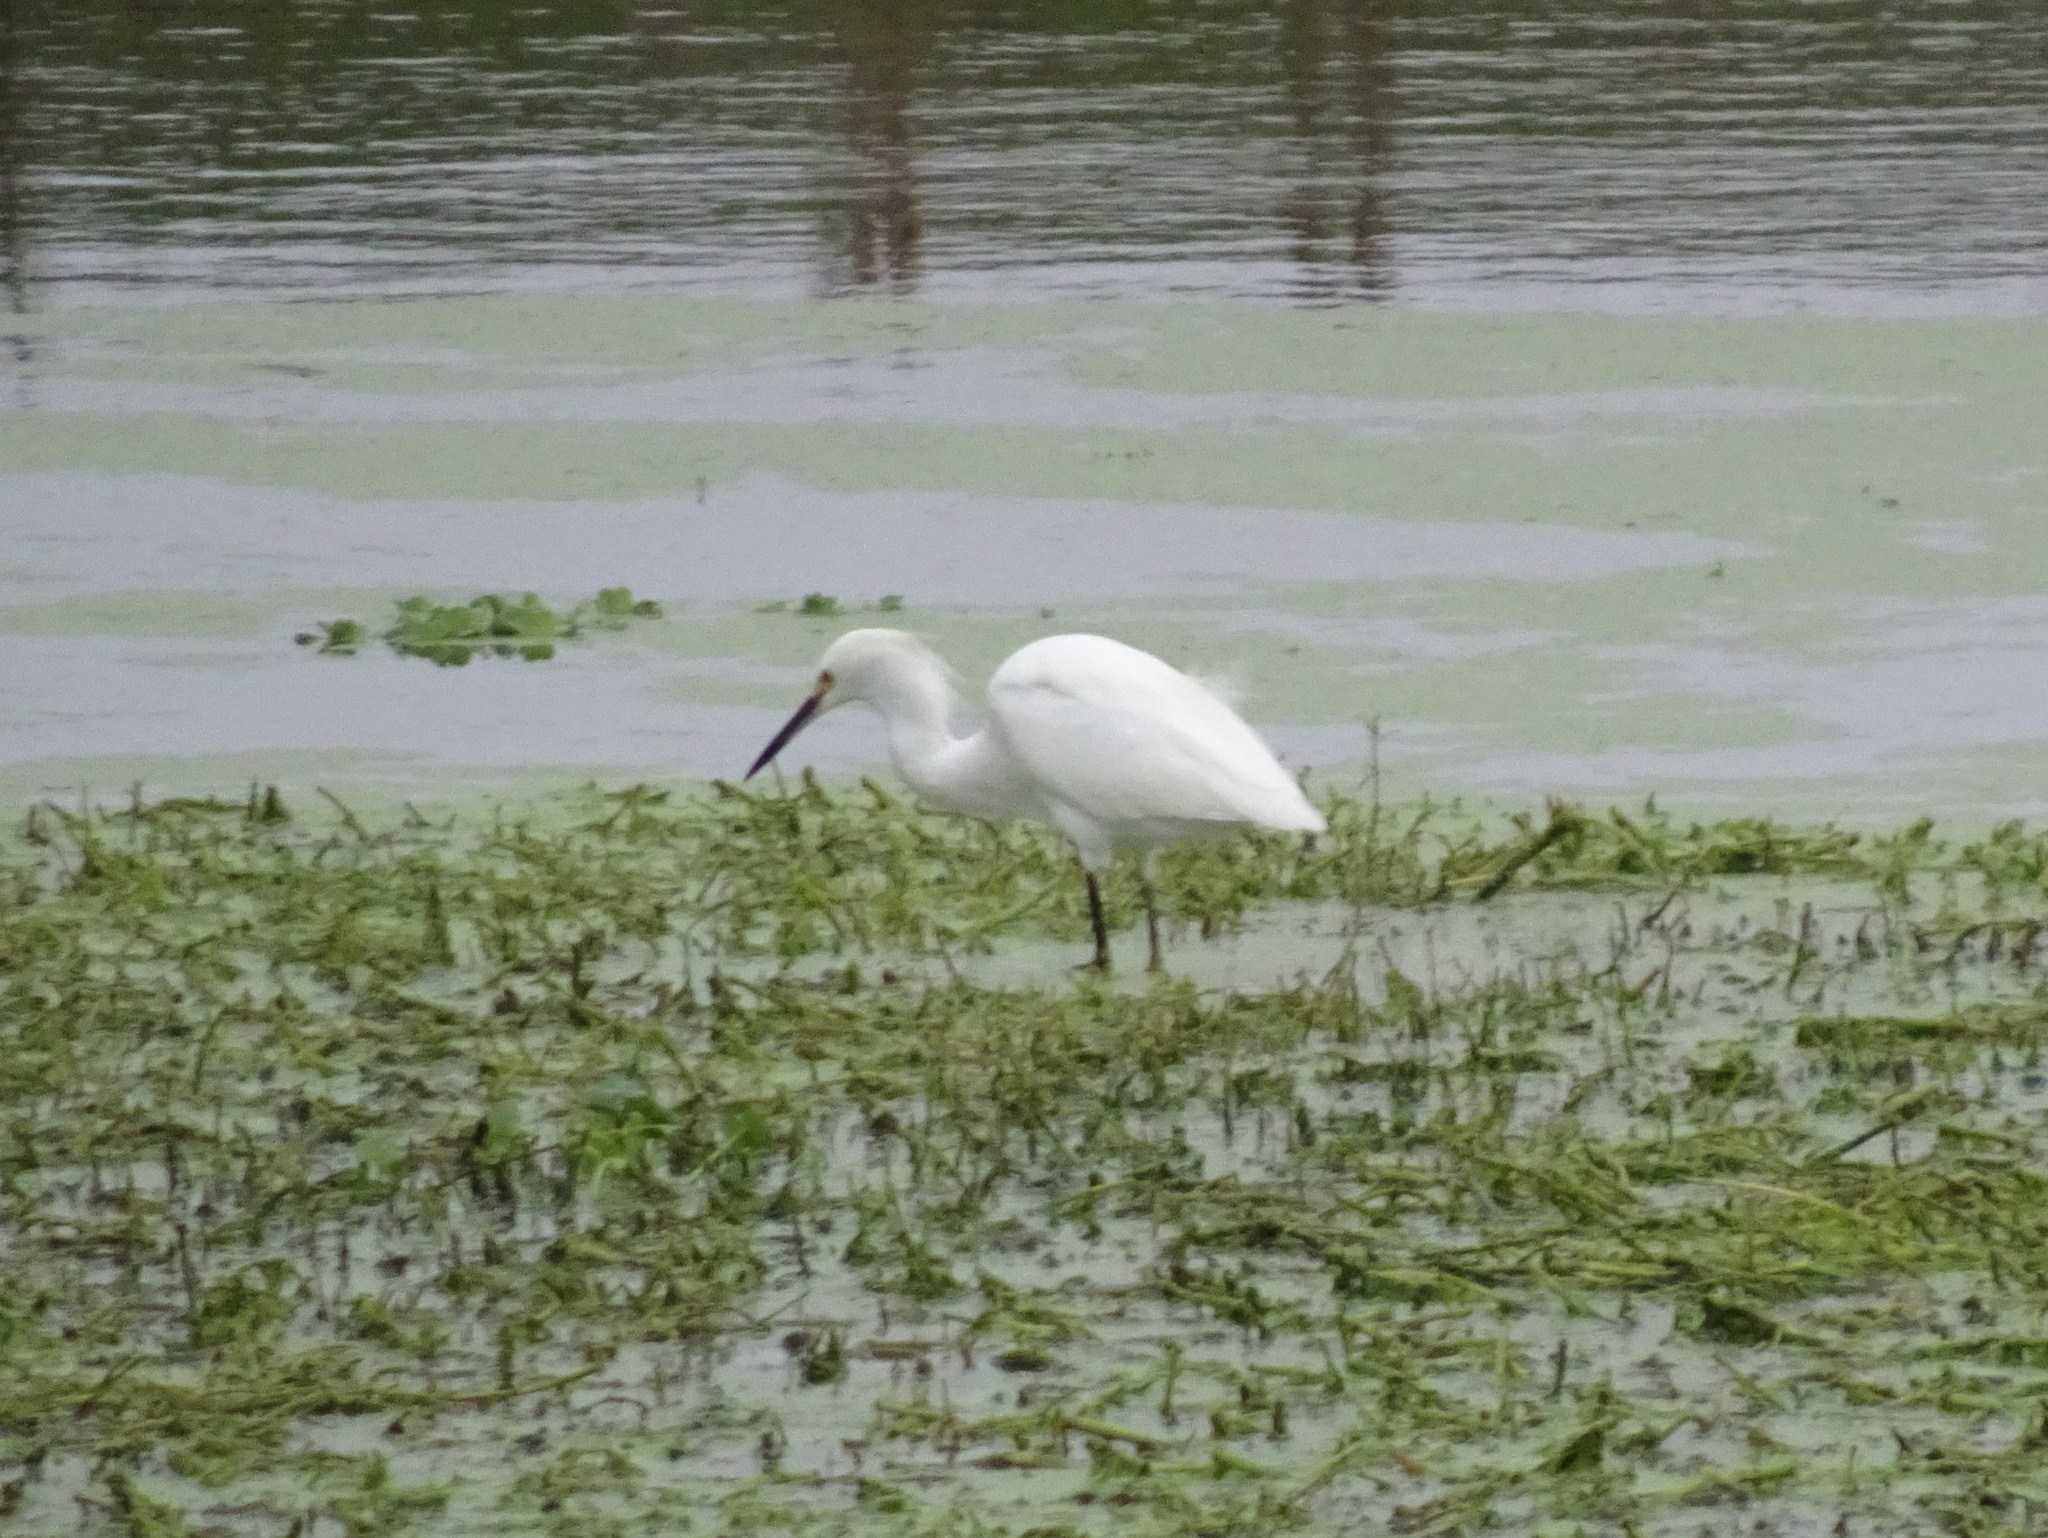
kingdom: Animalia
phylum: Chordata
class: Aves
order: Pelecaniformes
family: Ardeidae
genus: Egretta
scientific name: Egretta thula
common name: Snowy egret
